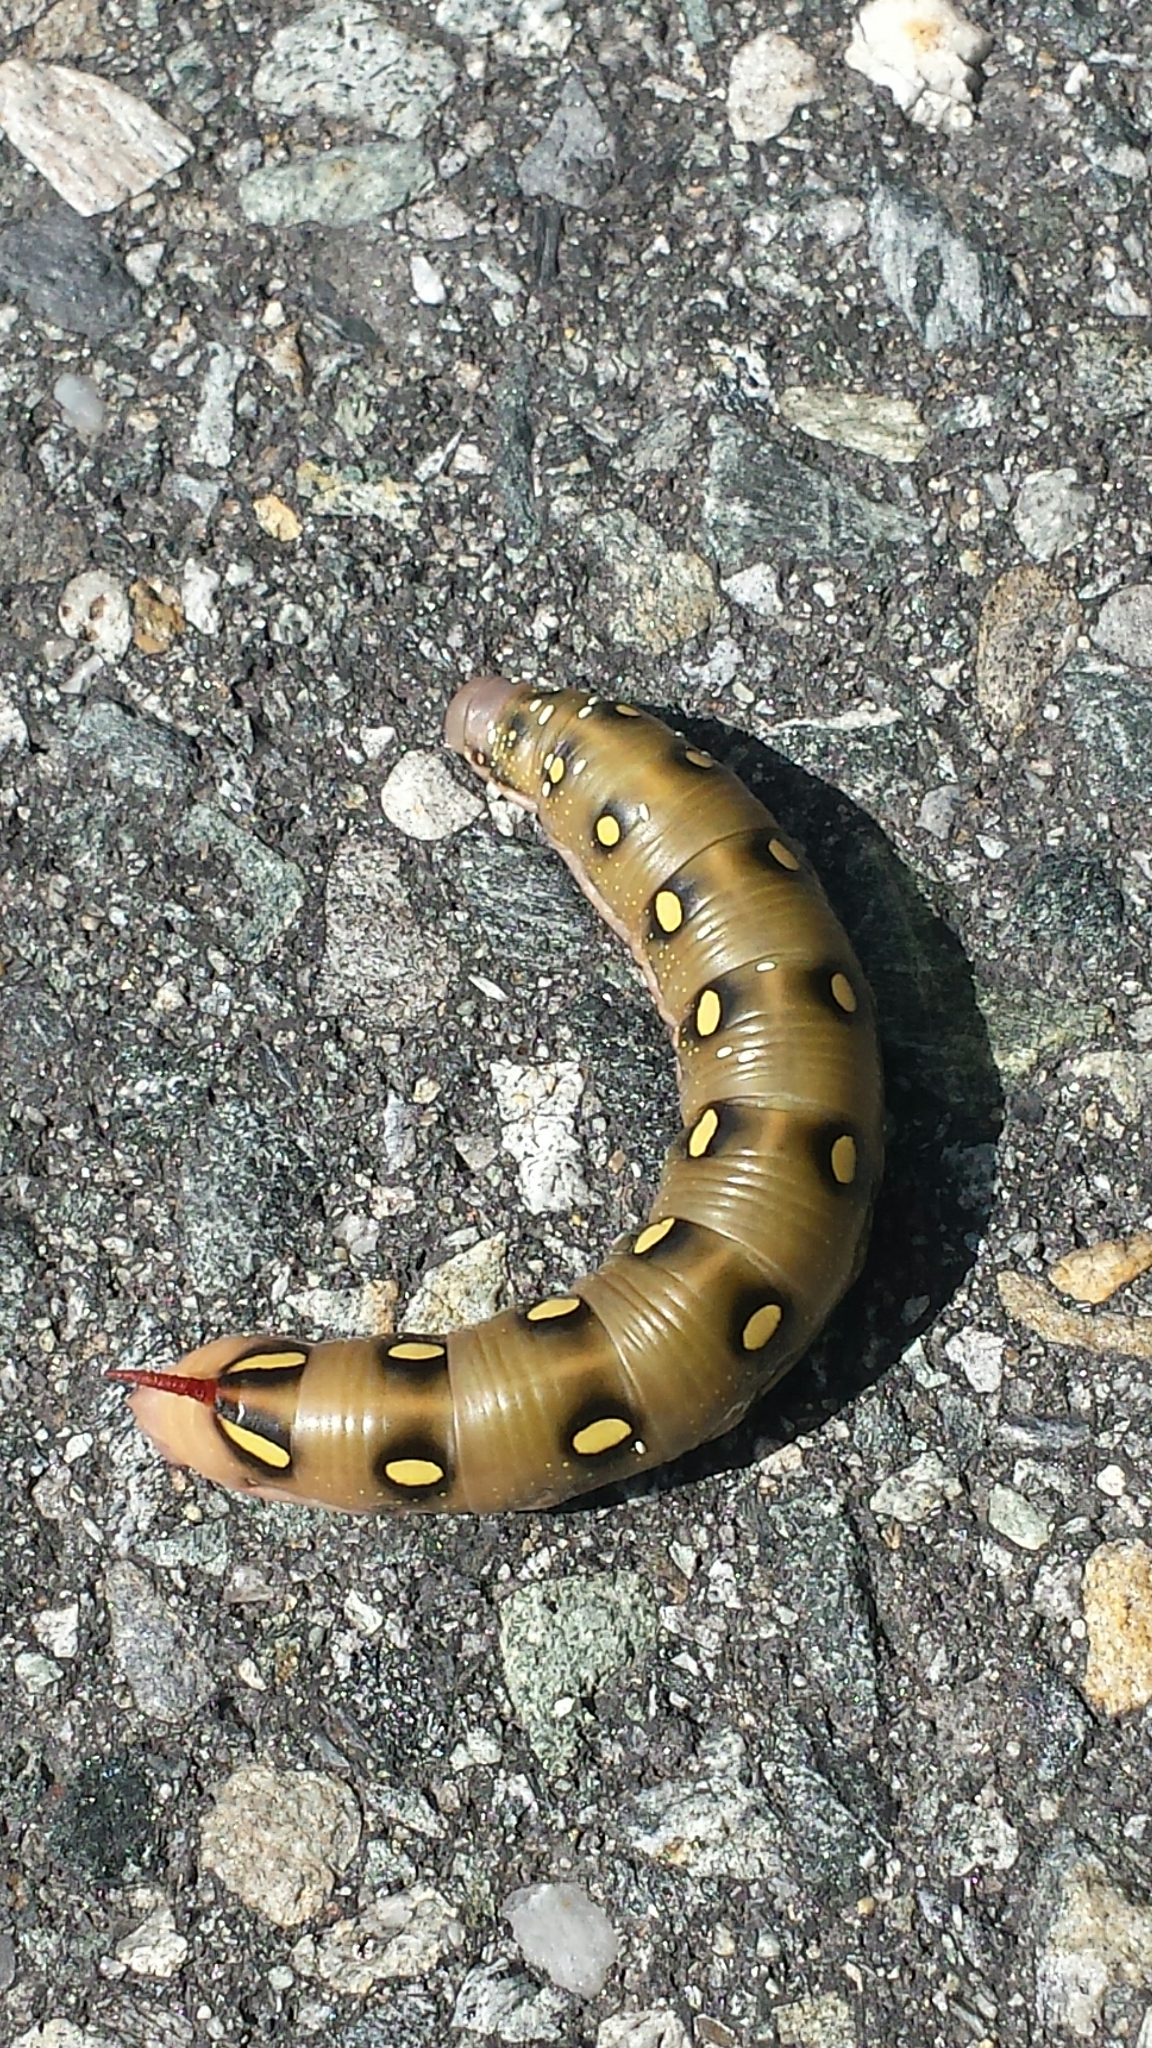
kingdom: Animalia
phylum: Arthropoda
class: Insecta
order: Lepidoptera
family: Sphingidae
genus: Hyles
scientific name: Hyles gallii
